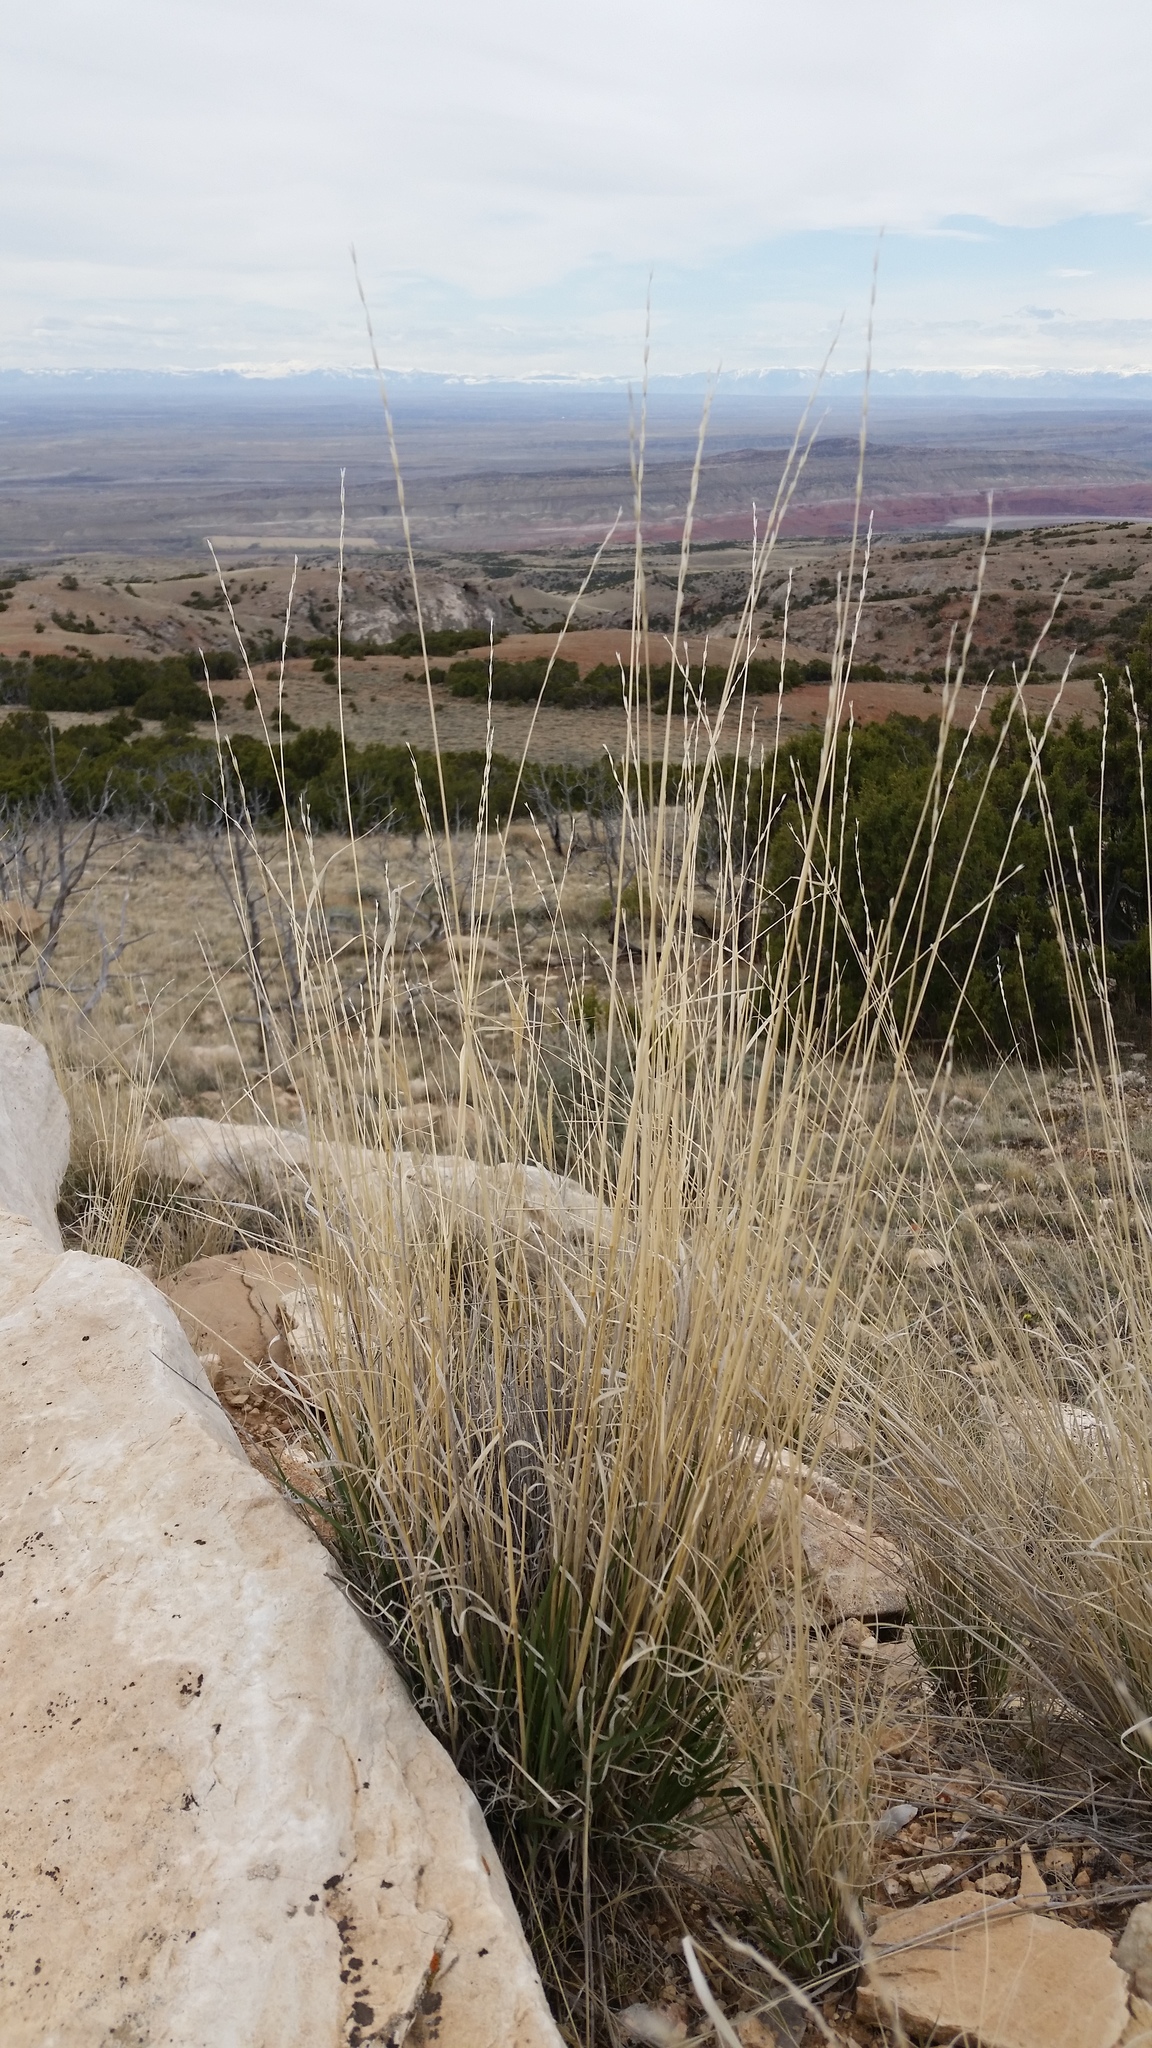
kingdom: Plantae
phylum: Tracheophyta
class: Liliopsida
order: Poales
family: Poaceae
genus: Pseudoroegneria
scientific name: Pseudoroegneria spicata
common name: Bluebunch wheatgrass
